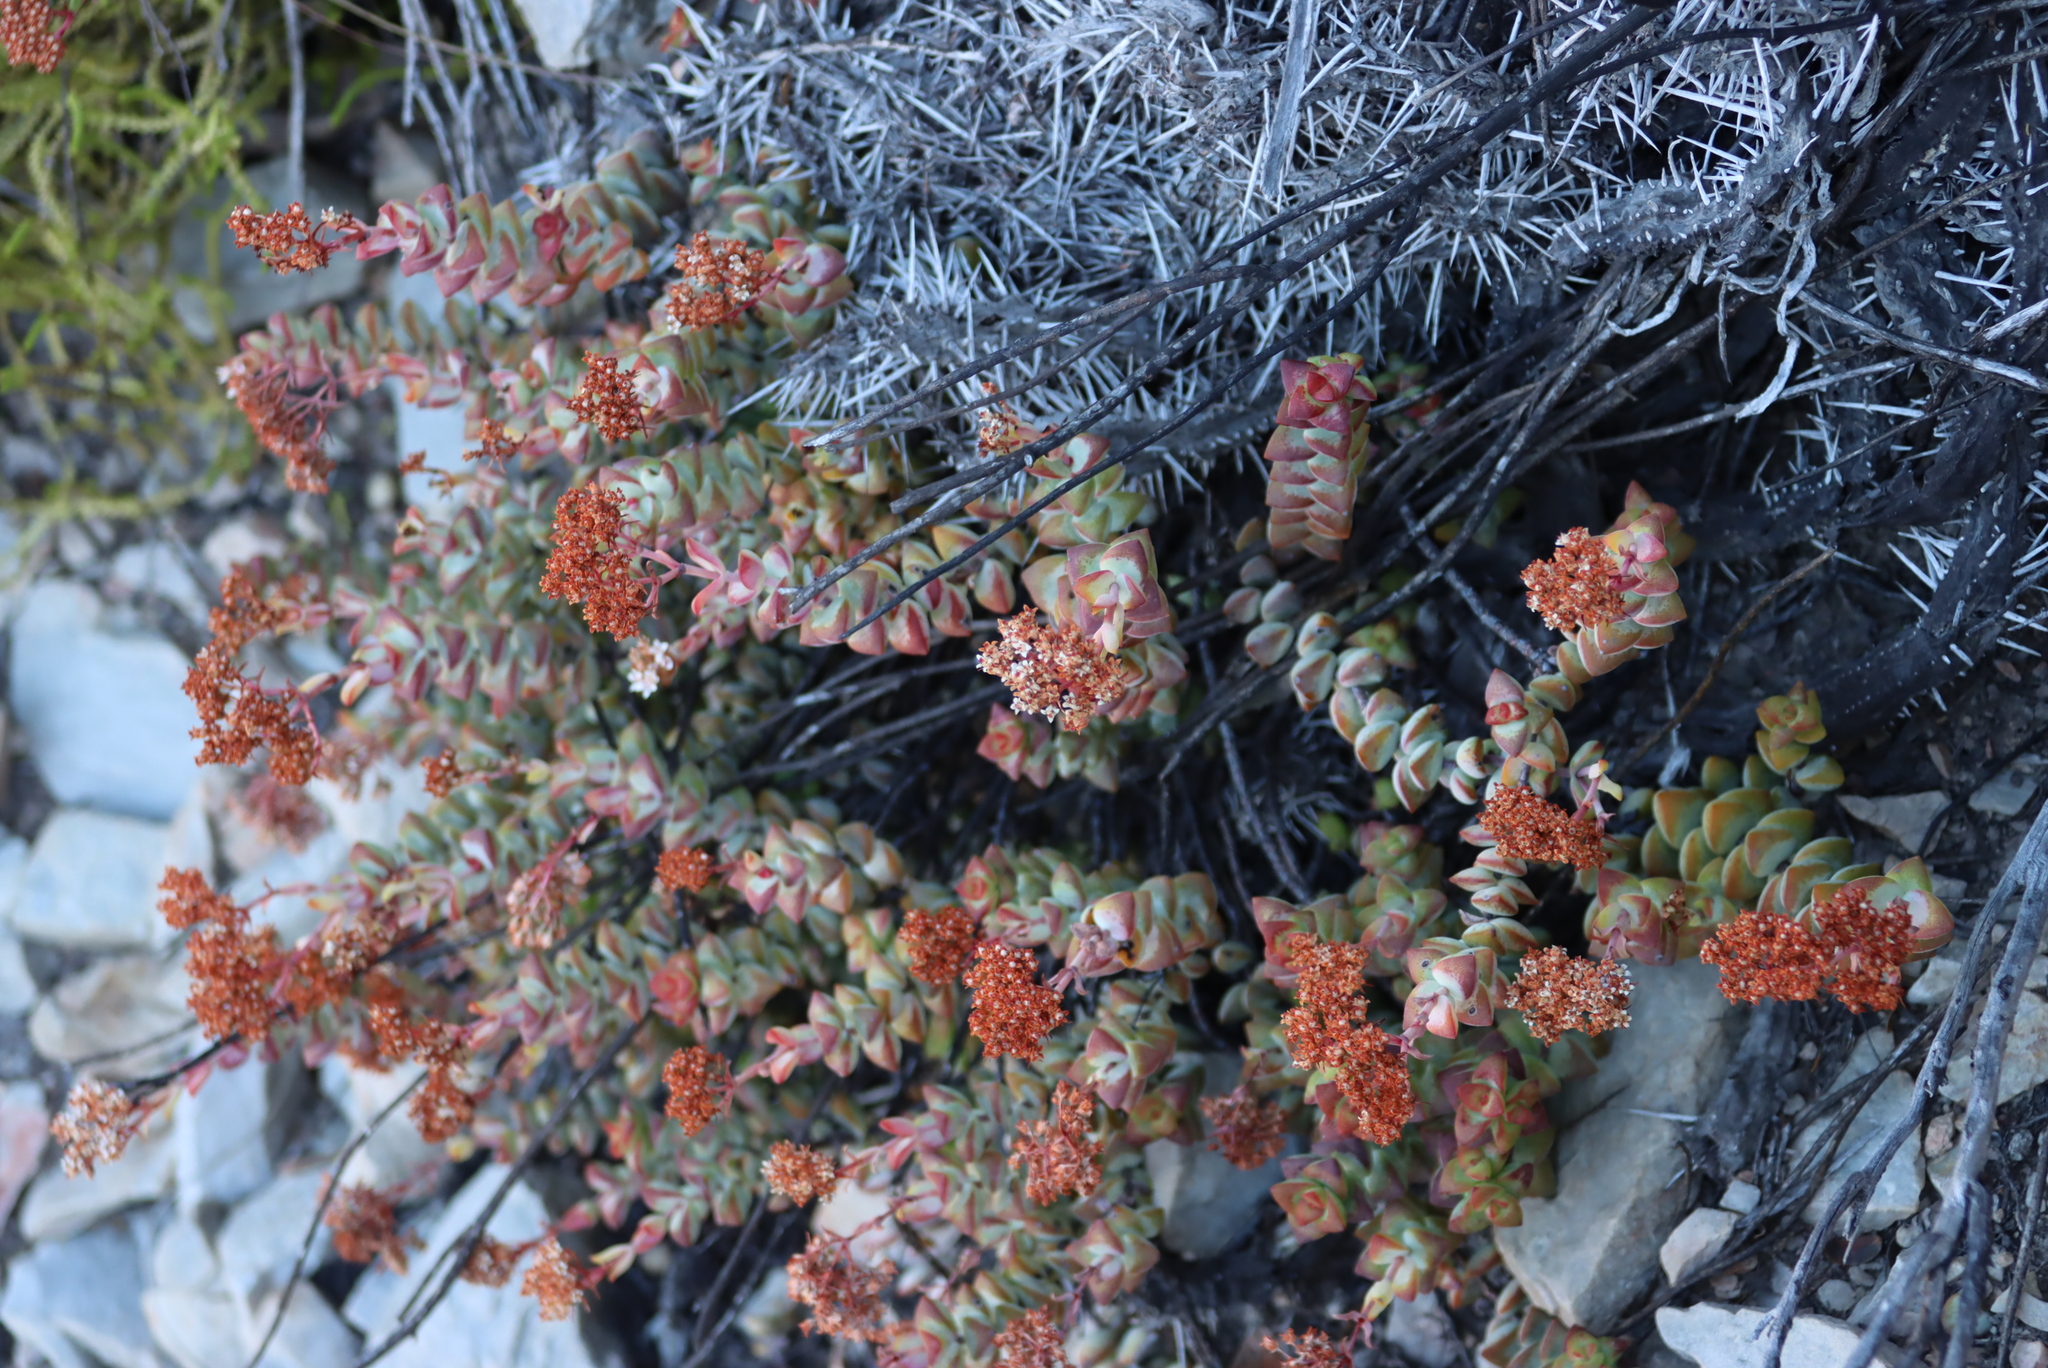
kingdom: Plantae
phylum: Tracheophyta
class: Magnoliopsida
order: Saxifragales
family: Crassulaceae
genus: Crassula
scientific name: Crassula rupestris
